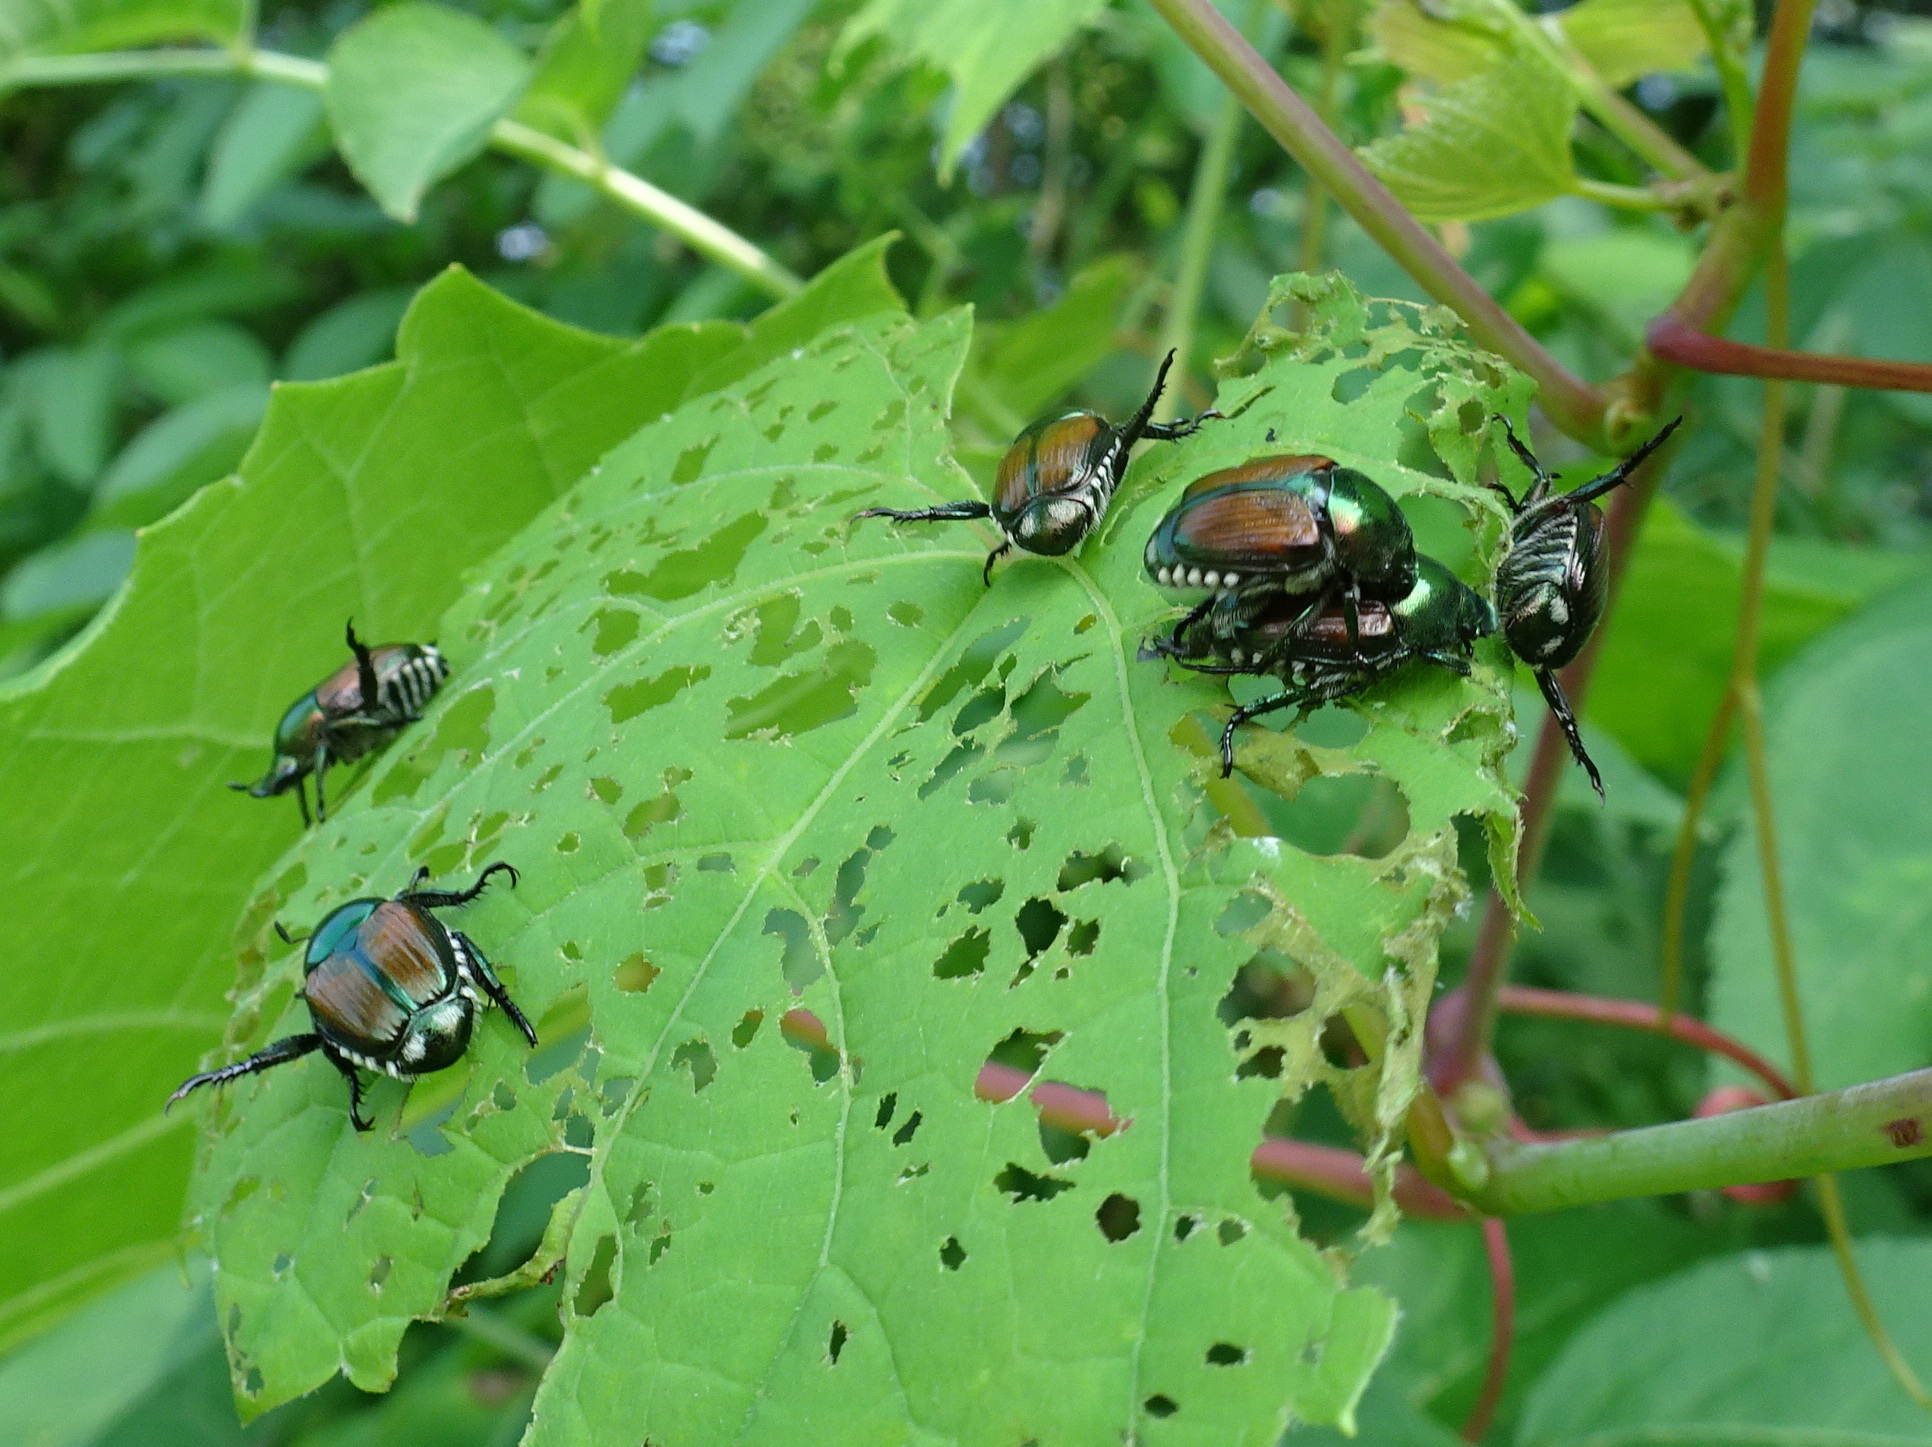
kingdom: Animalia
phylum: Arthropoda
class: Insecta
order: Coleoptera
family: Scarabaeidae
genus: Popillia
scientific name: Popillia japonica
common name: Japanese beetle
